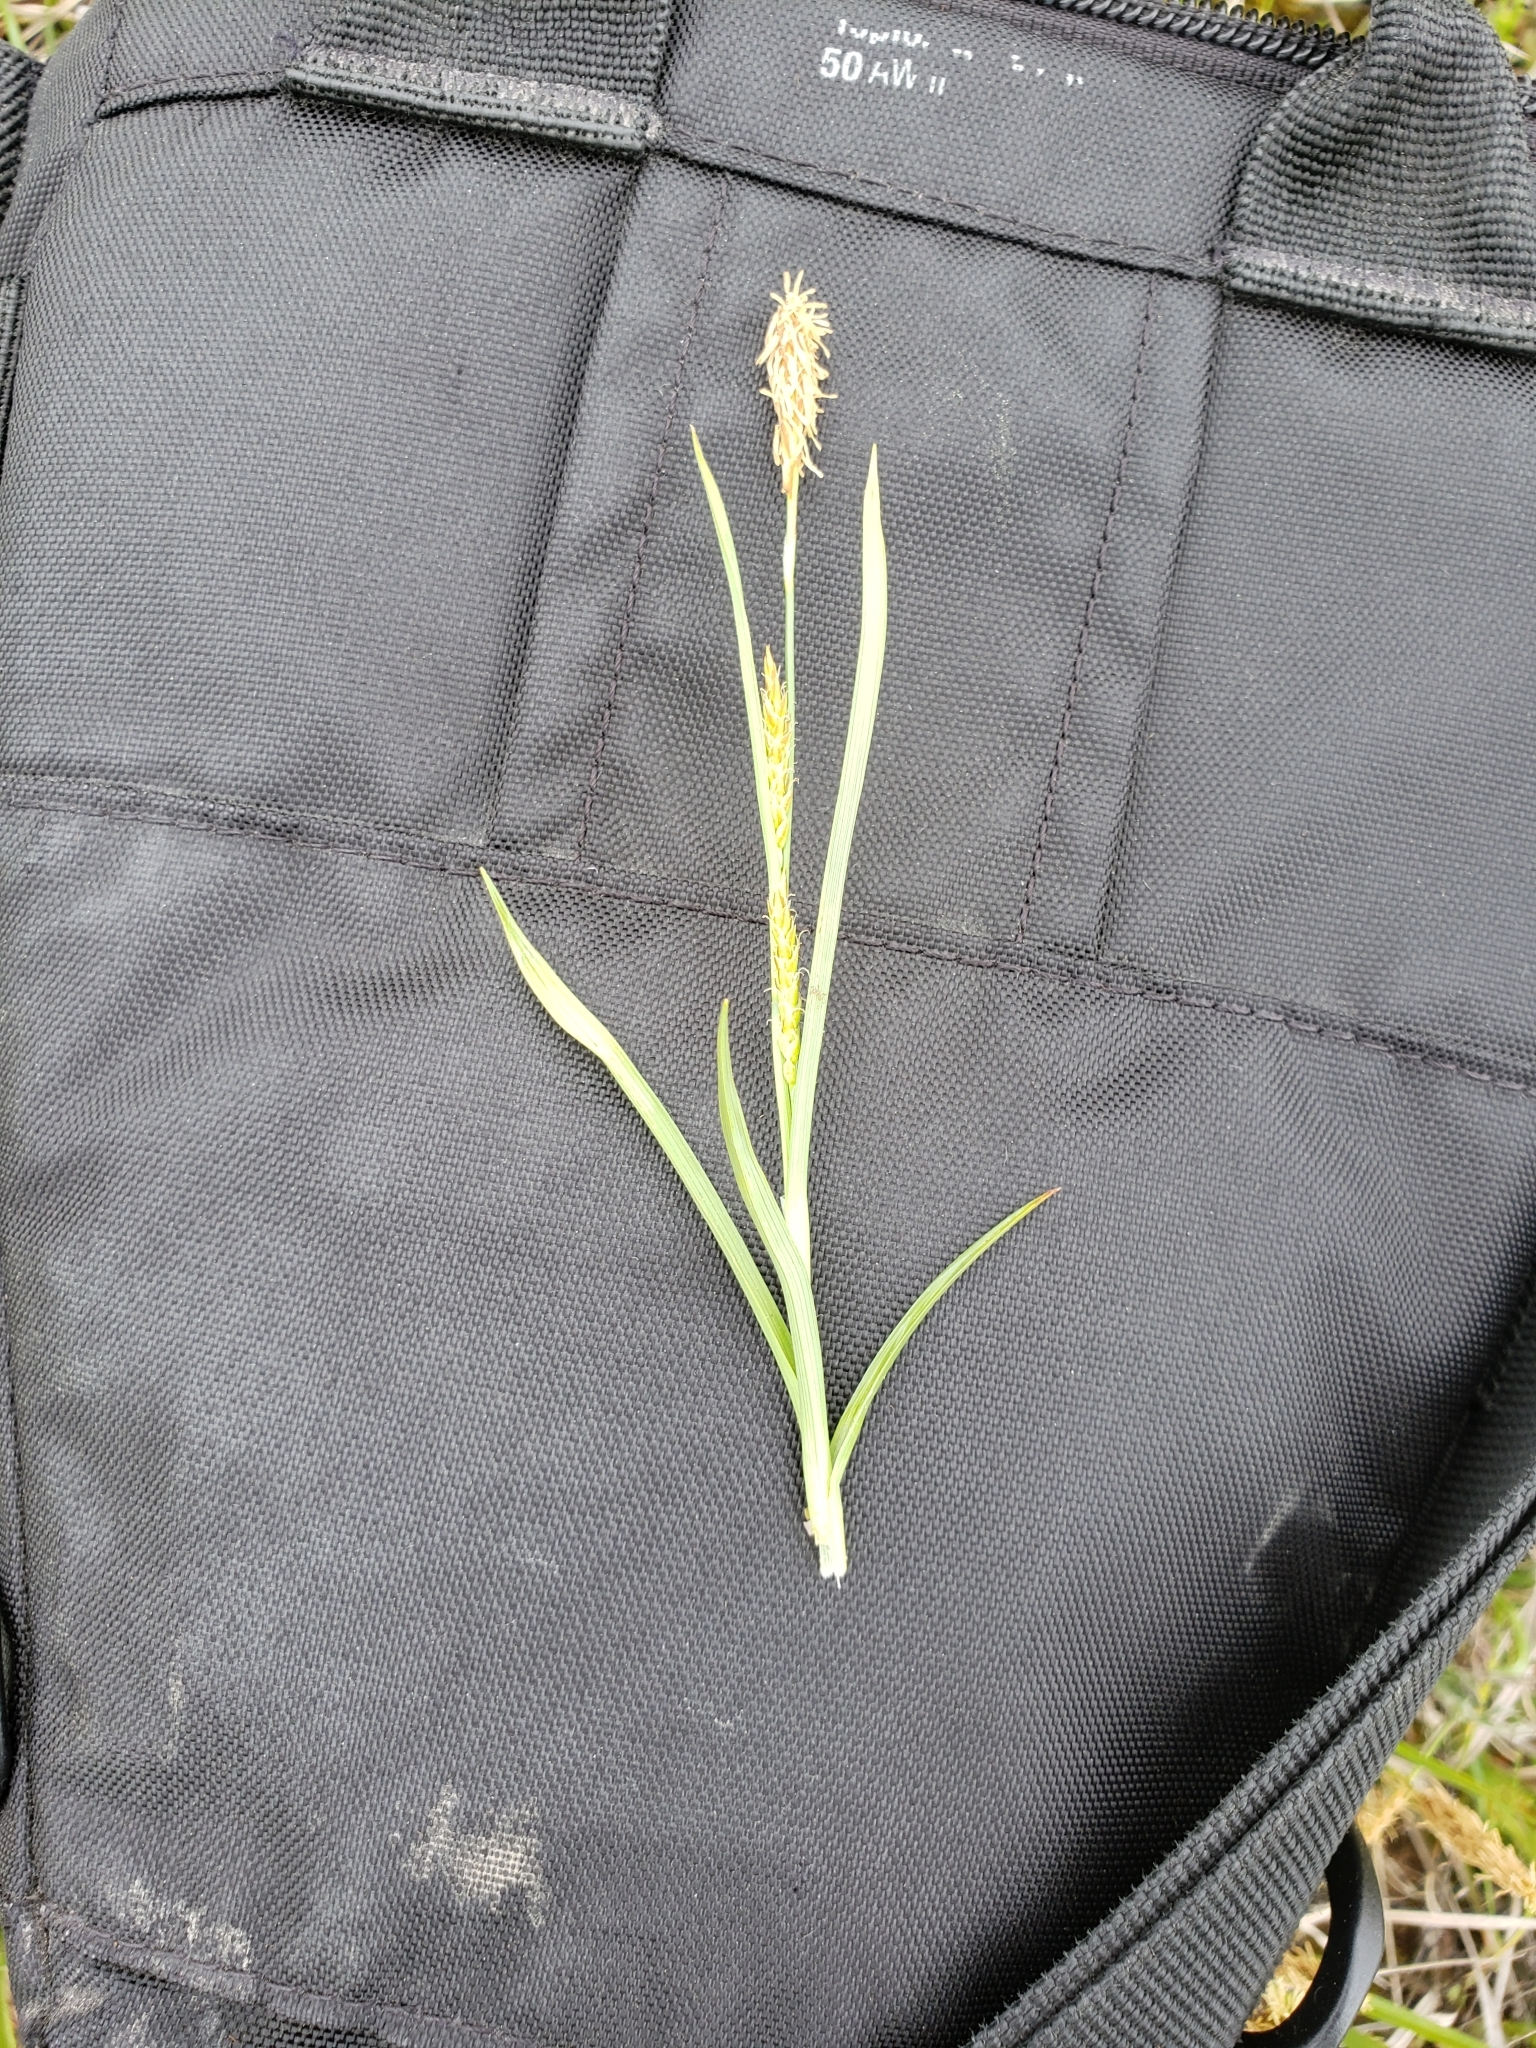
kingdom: Plantae
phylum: Tracheophyta
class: Liliopsida
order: Poales
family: Cyperaceae
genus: Carex
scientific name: Carex crawei
